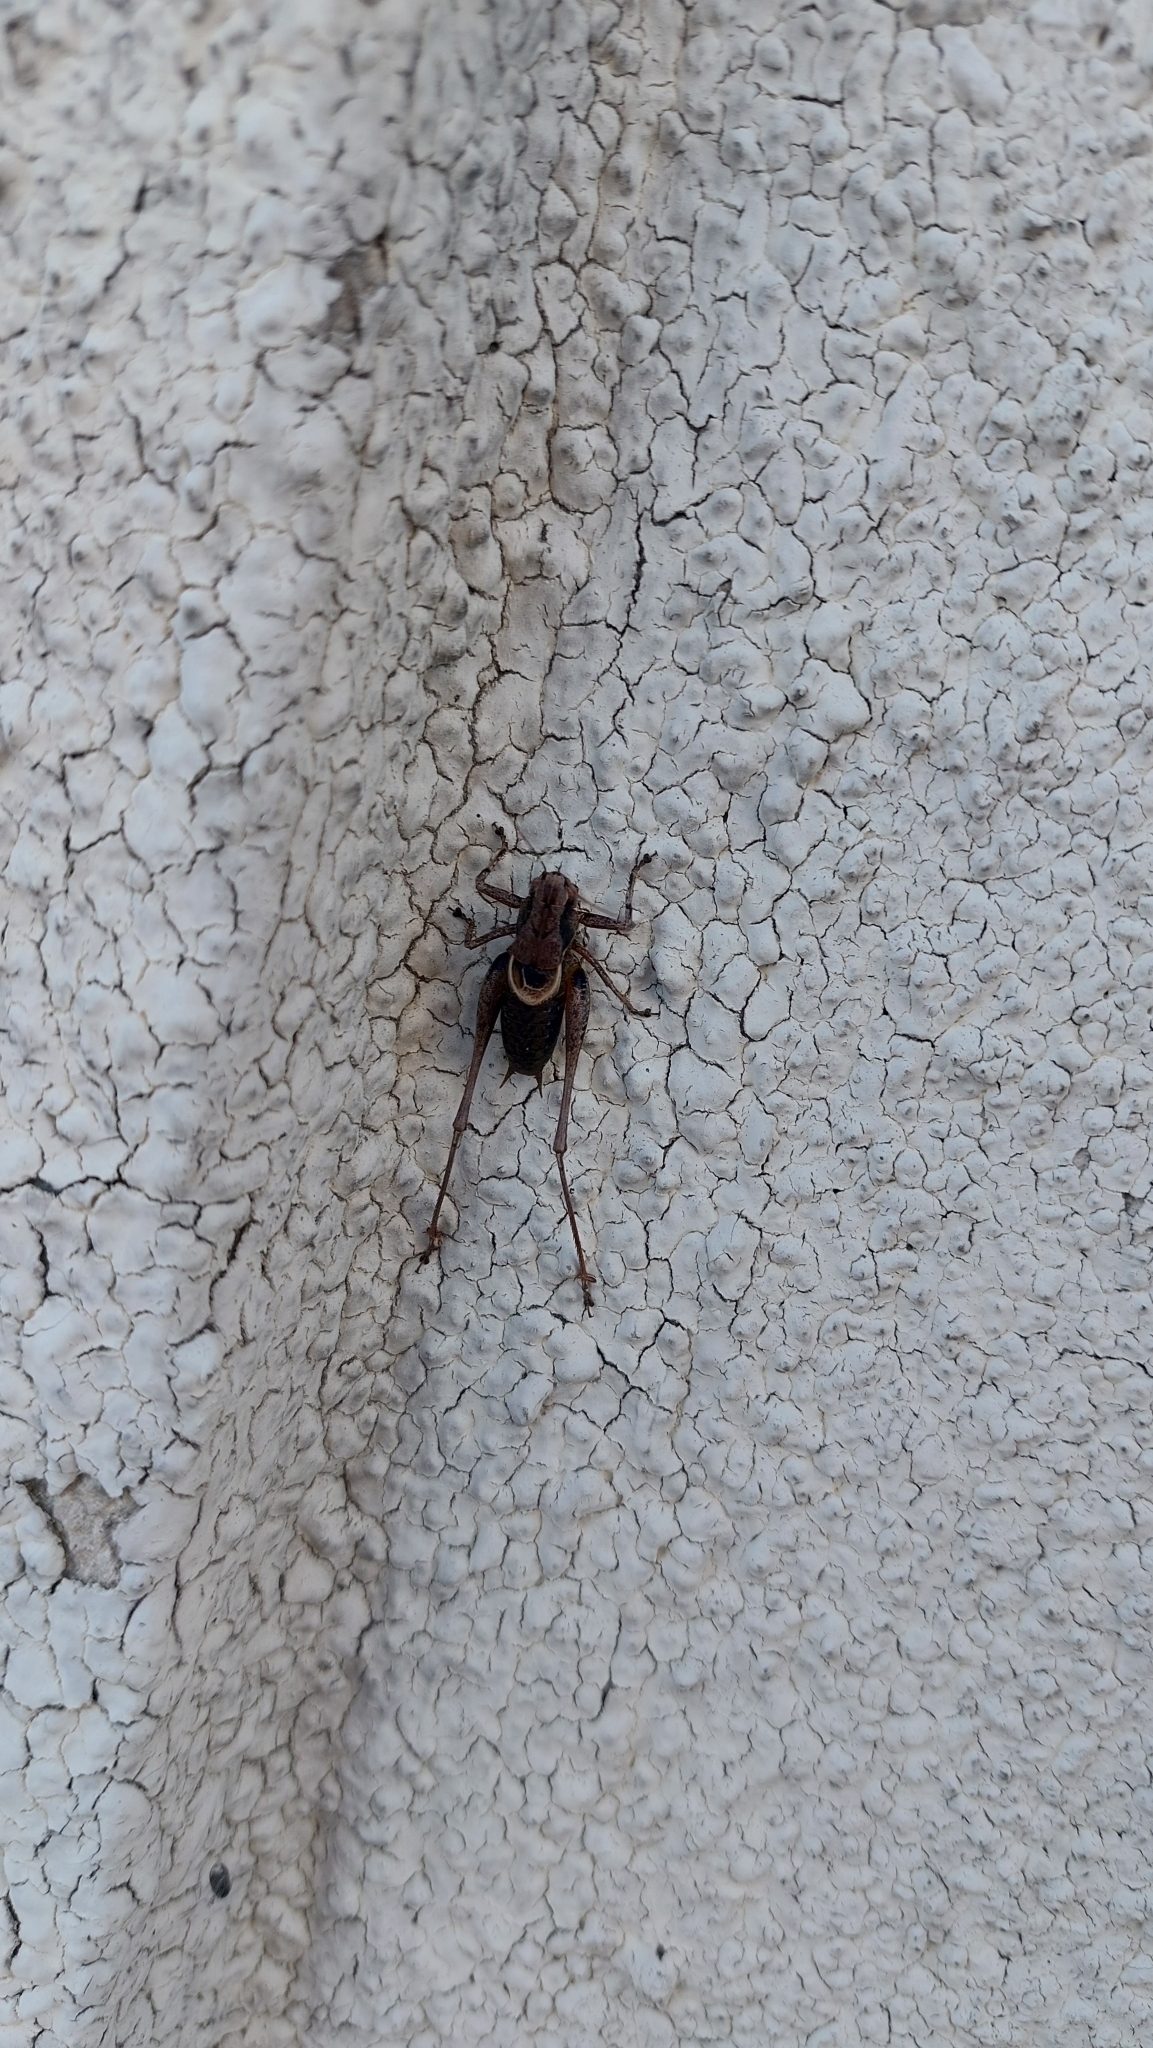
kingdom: Animalia
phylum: Arthropoda
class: Insecta
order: Orthoptera
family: Tettigoniidae
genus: Pholidoptera
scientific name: Pholidoptera griseoaptera
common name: Dark bush-cricket
